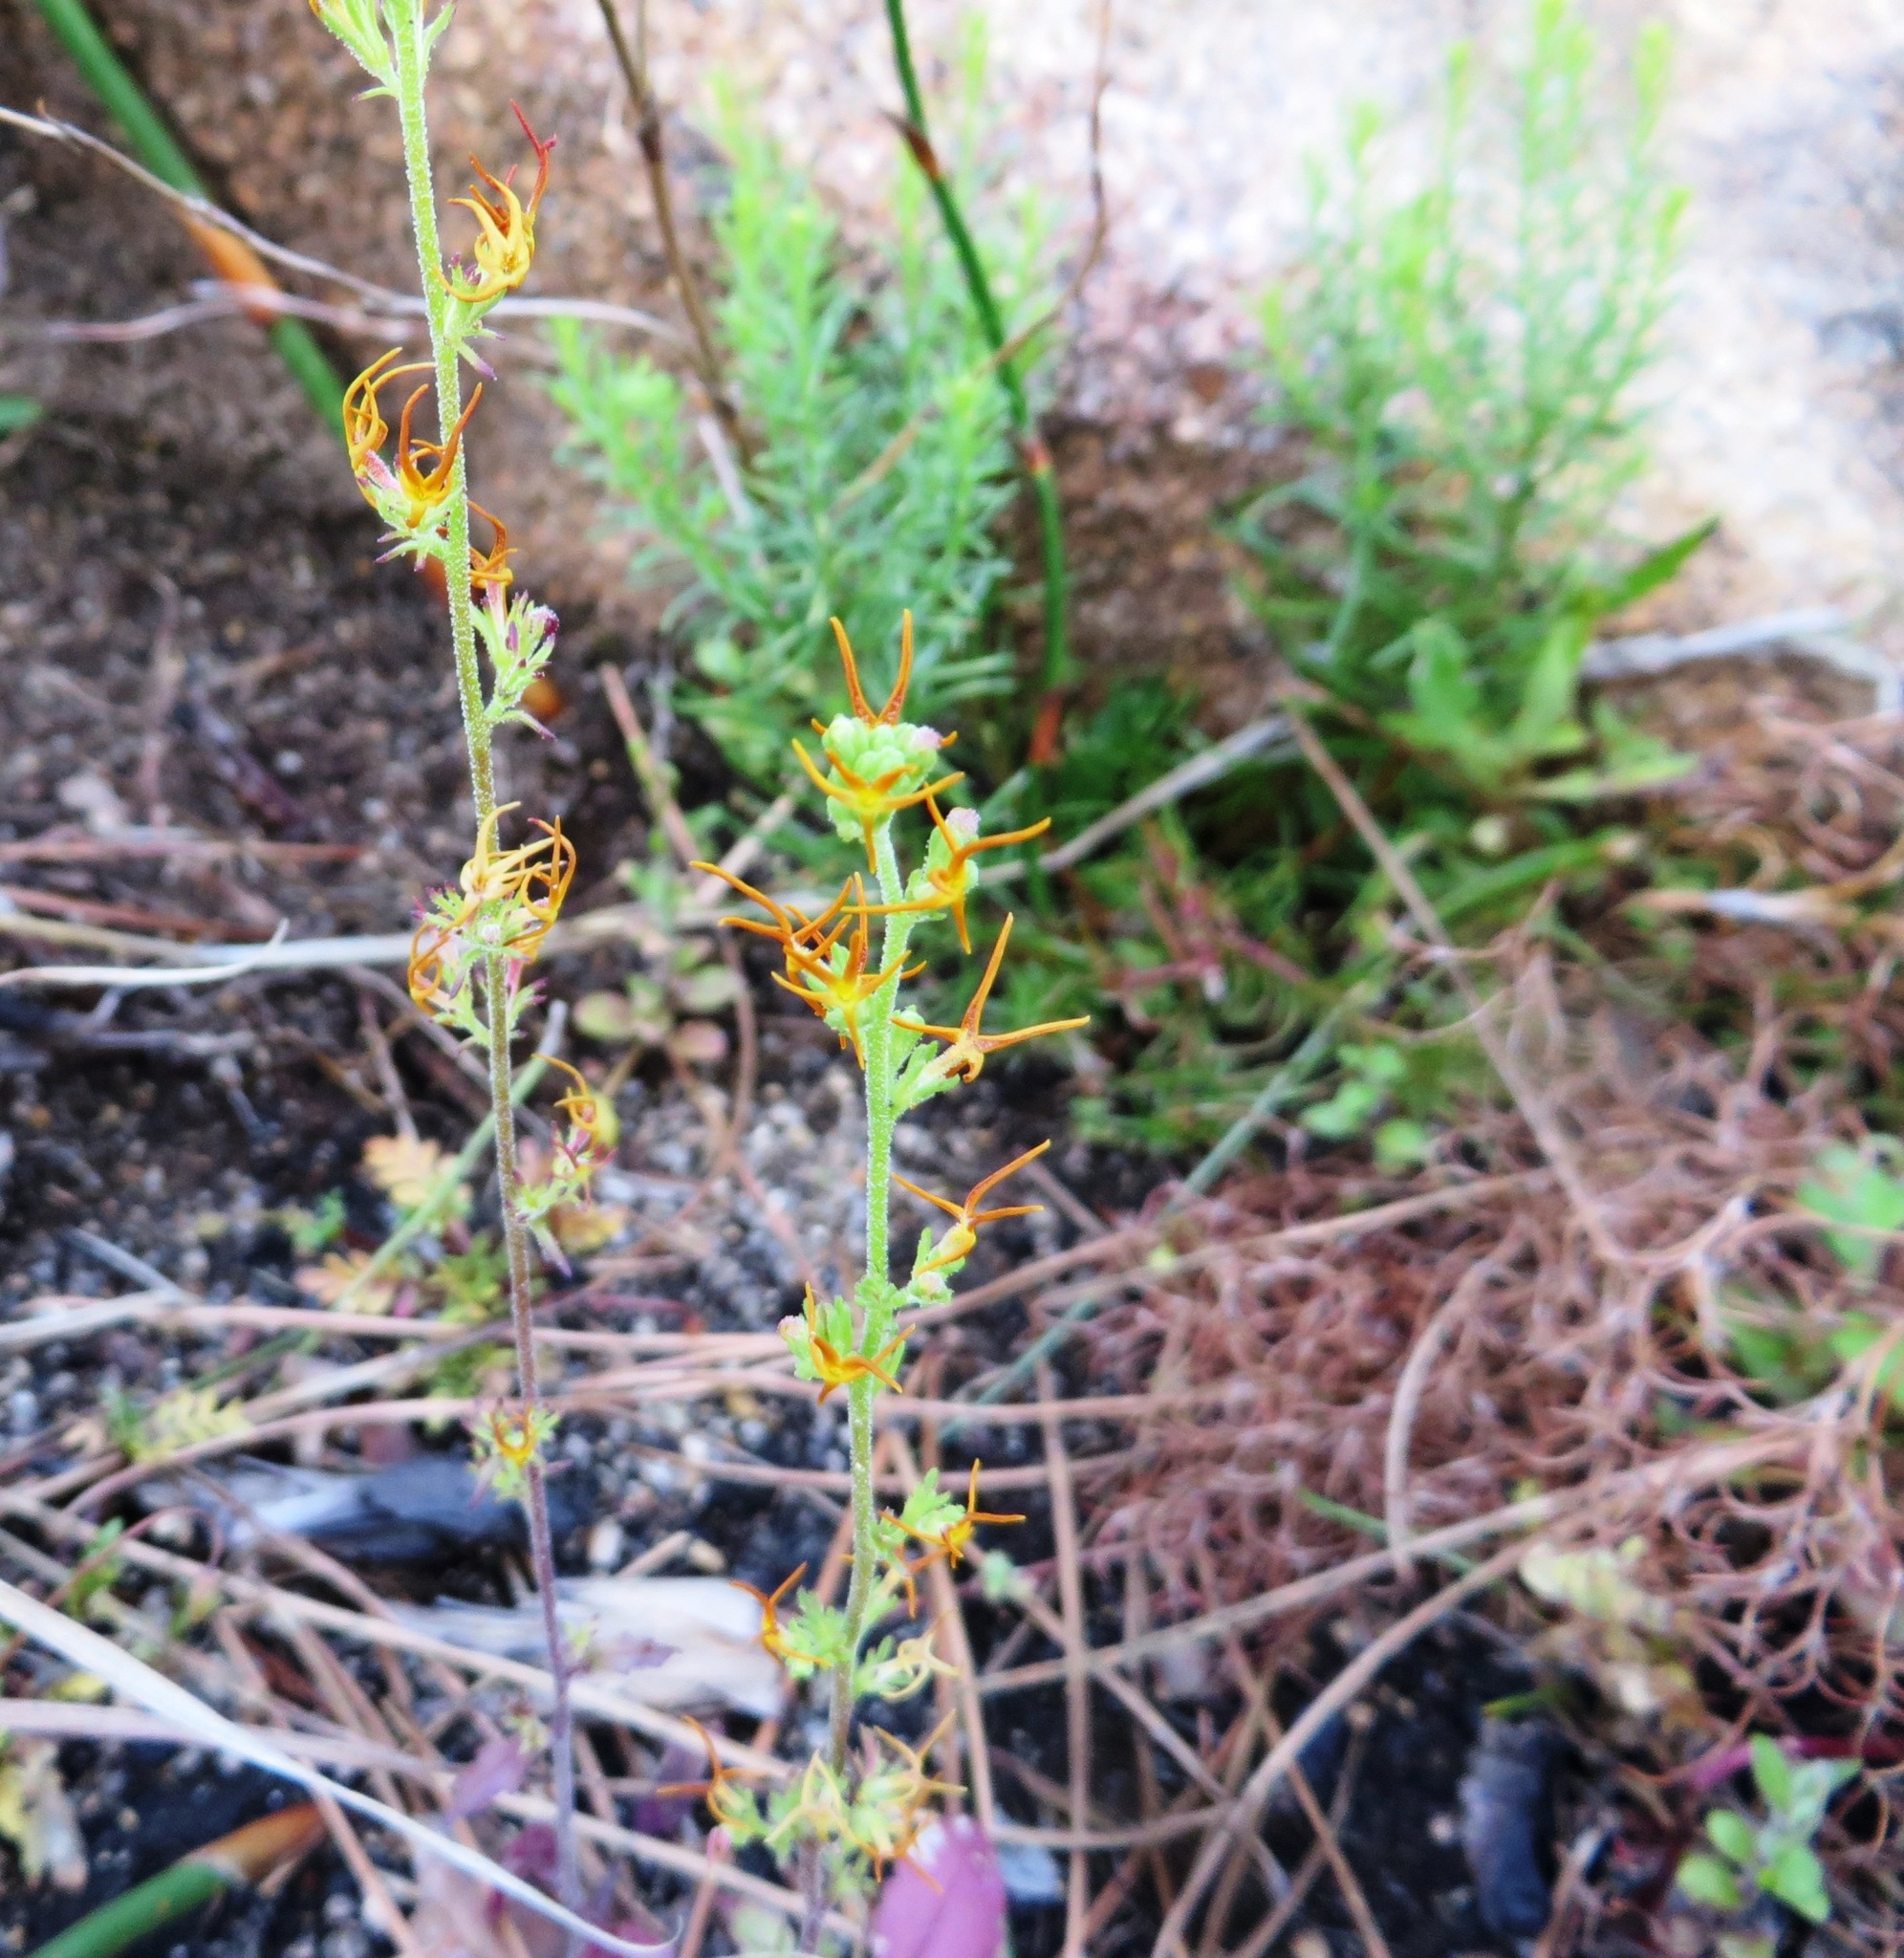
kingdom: Plantae
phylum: Tracheophyta
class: Magnoliopsida
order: Lamiales
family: Scrophulariaceae
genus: Manulea
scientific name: Manulea cheiranthus
